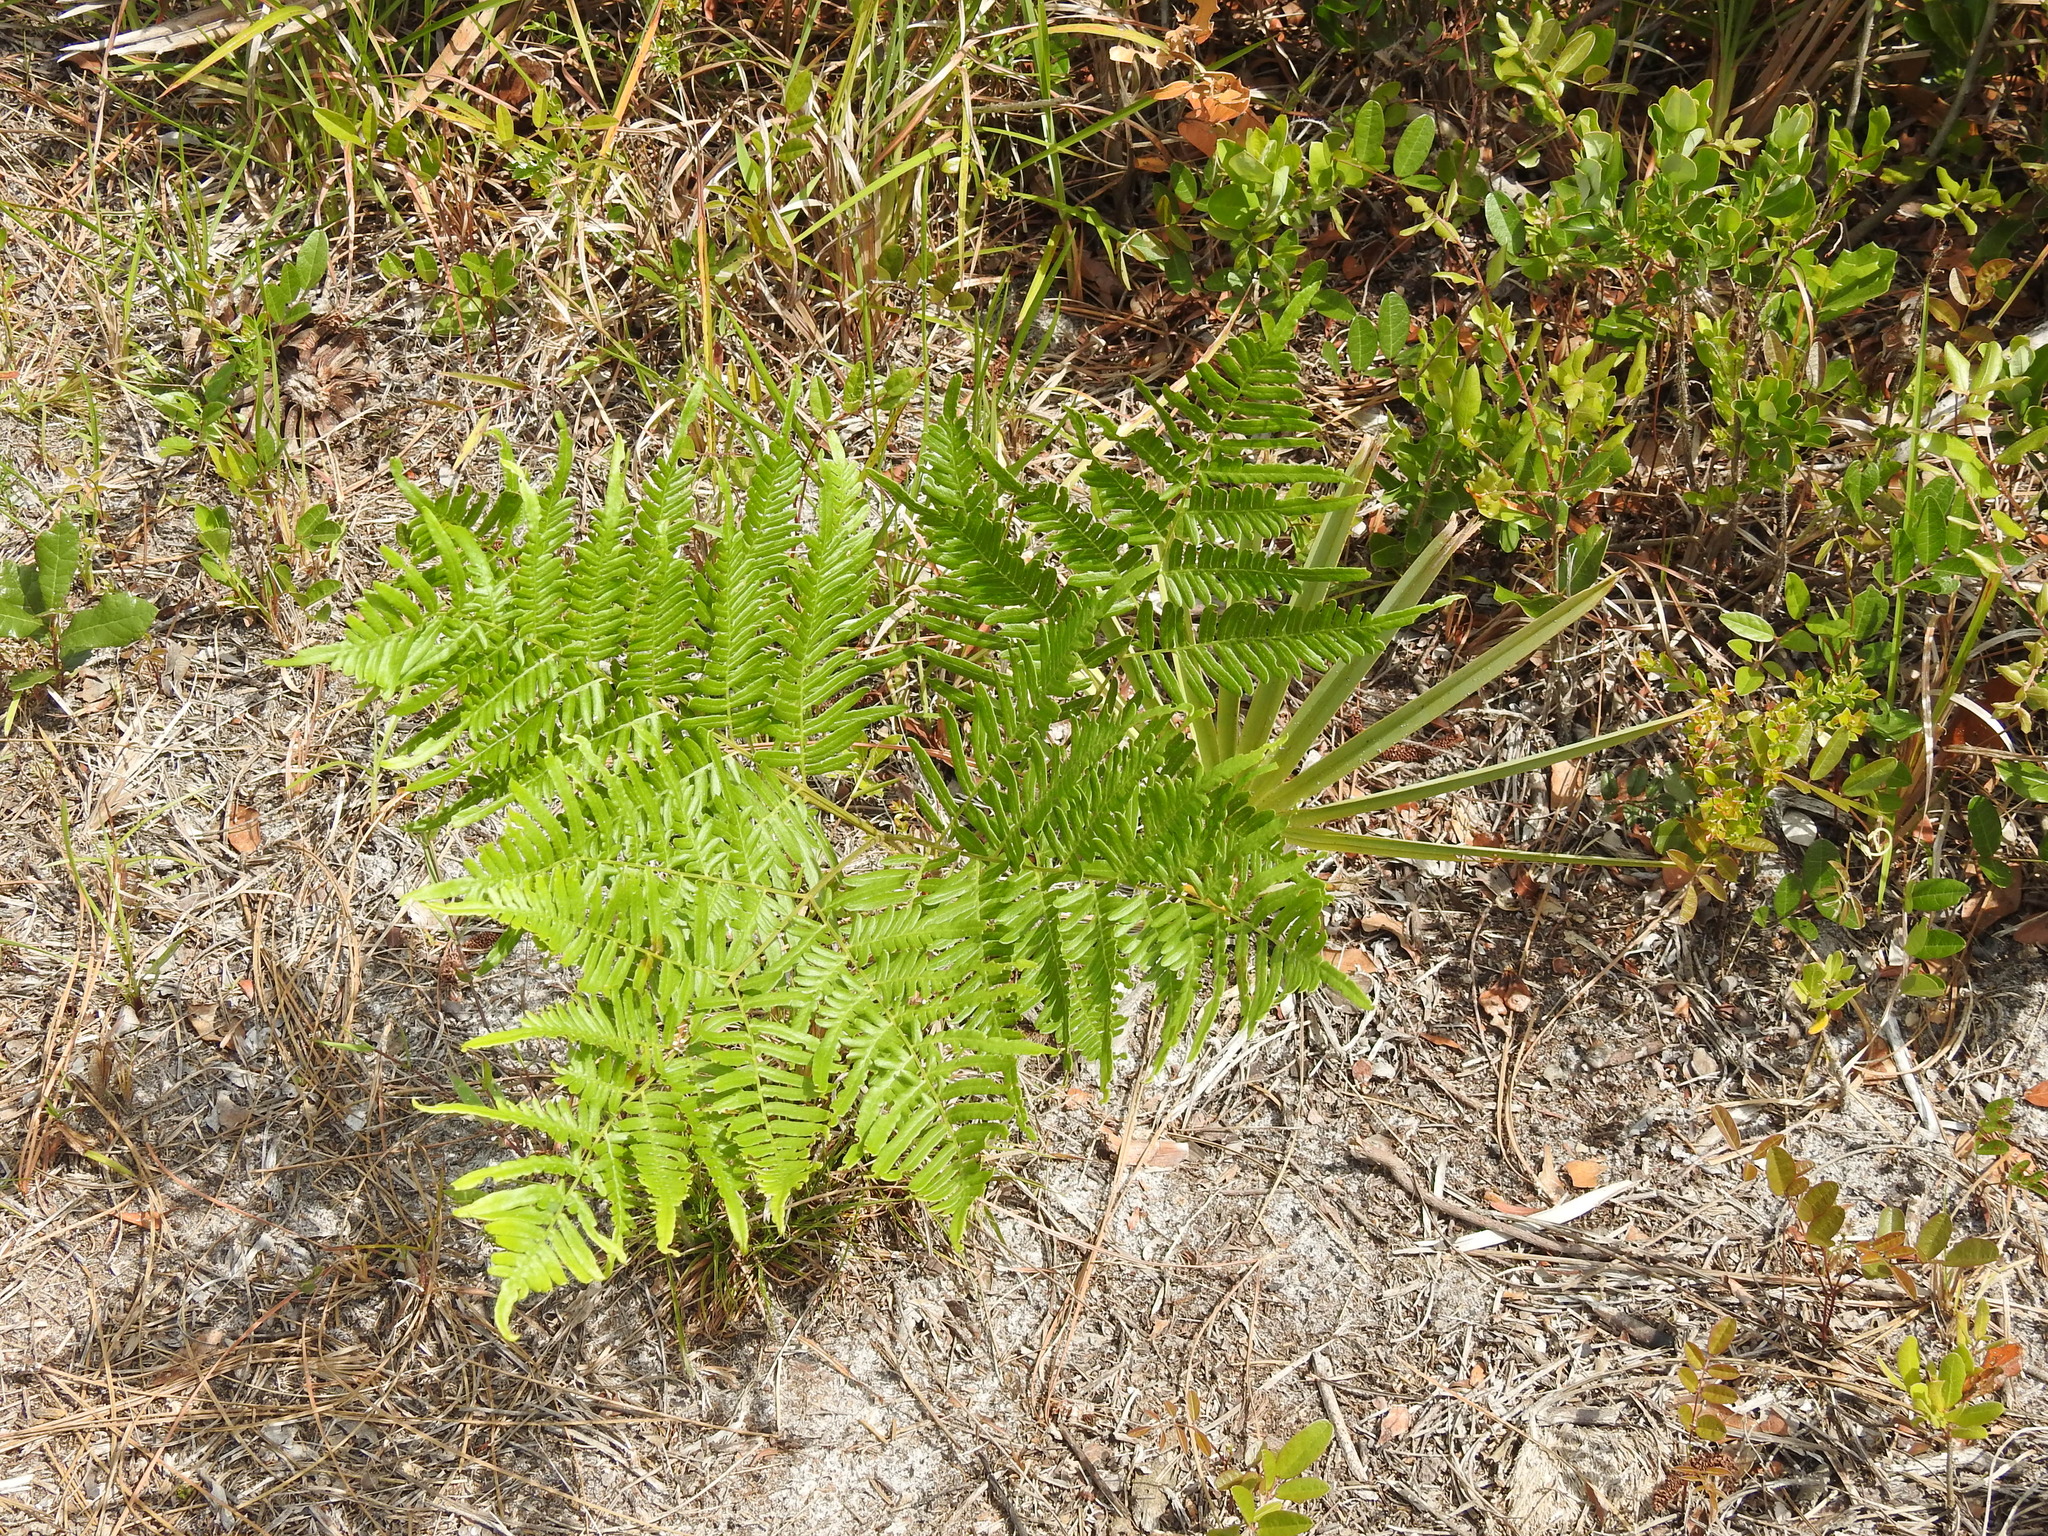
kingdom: Plantae
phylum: Tracheophyta
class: Polypodiopsida
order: Polypodiales
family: Dennstaedtiaceae
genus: Pteridium
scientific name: Pteridium aquilinum
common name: Bracken
